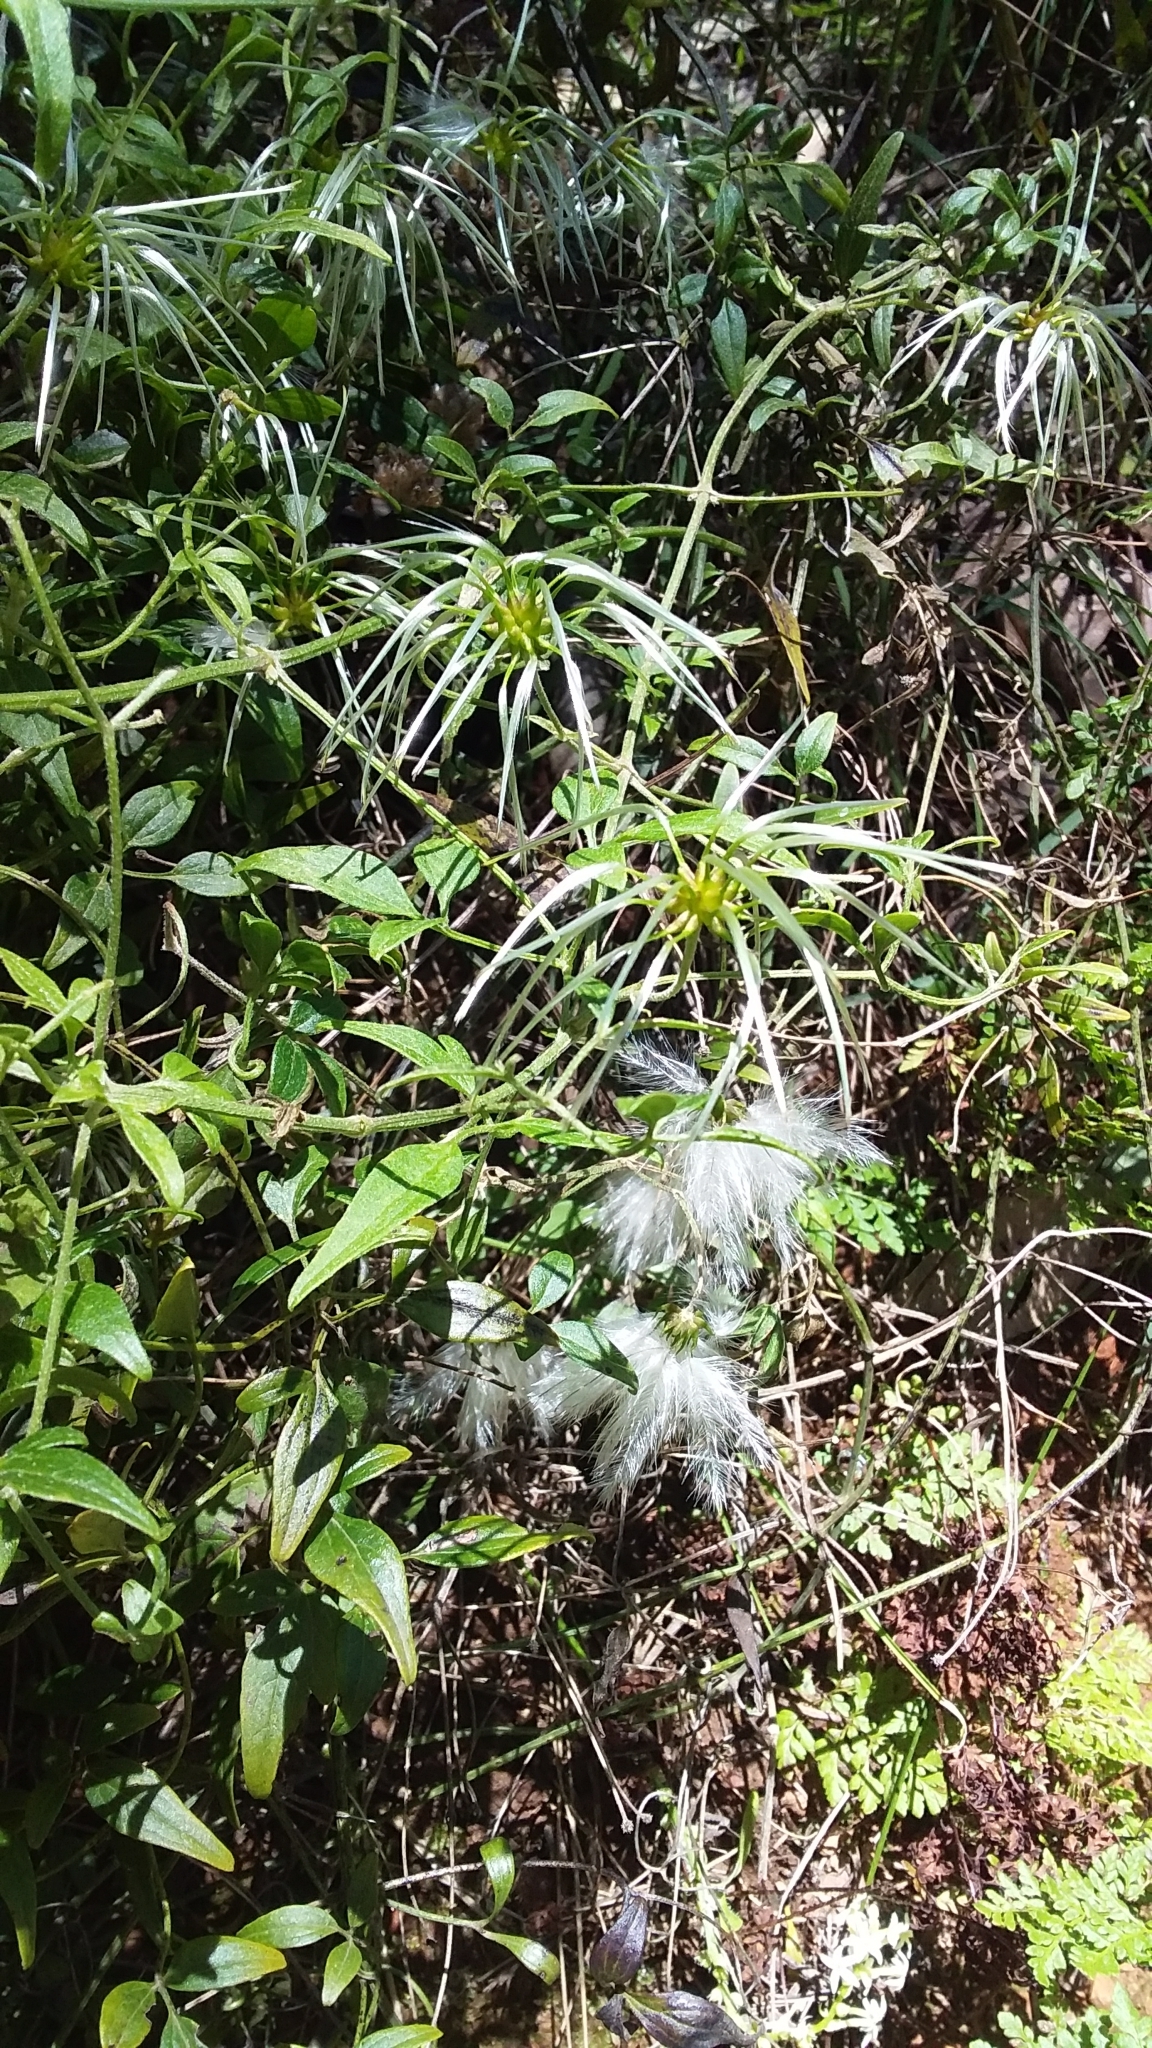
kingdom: Plantae
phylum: Tracheophyta
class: Magnoliopsida
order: Ranunculales
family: Ranunculaceae
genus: Clematis
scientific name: Clematis microphylla
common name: Headachevine
